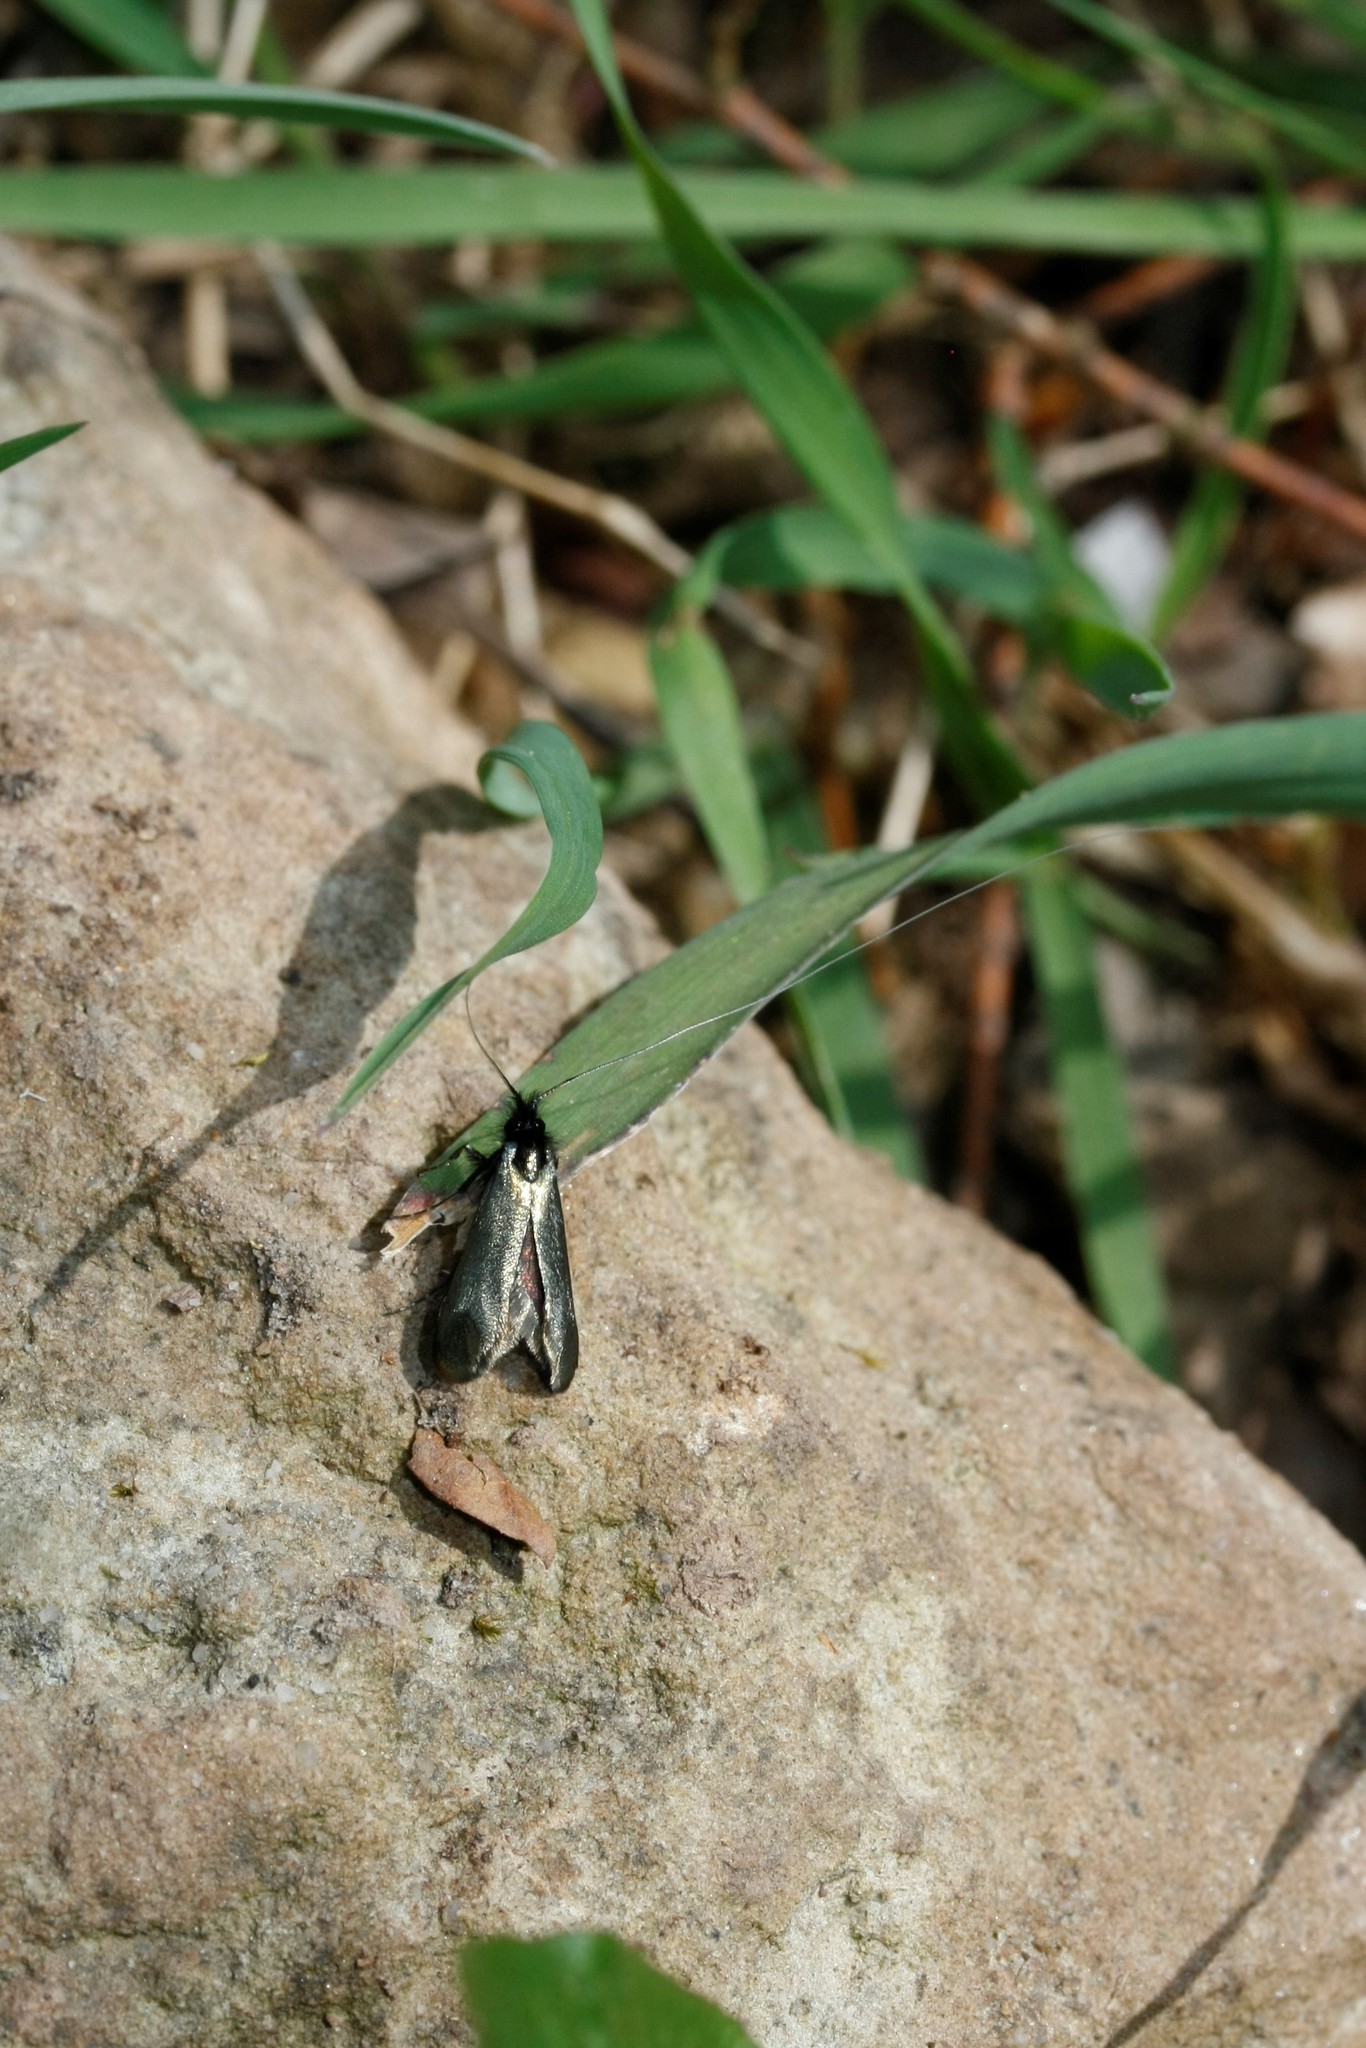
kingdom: Animalia
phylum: Arthropoda
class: Insecta
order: Lepidoptera
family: Adelidae
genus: Adela
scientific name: Adela viridella
